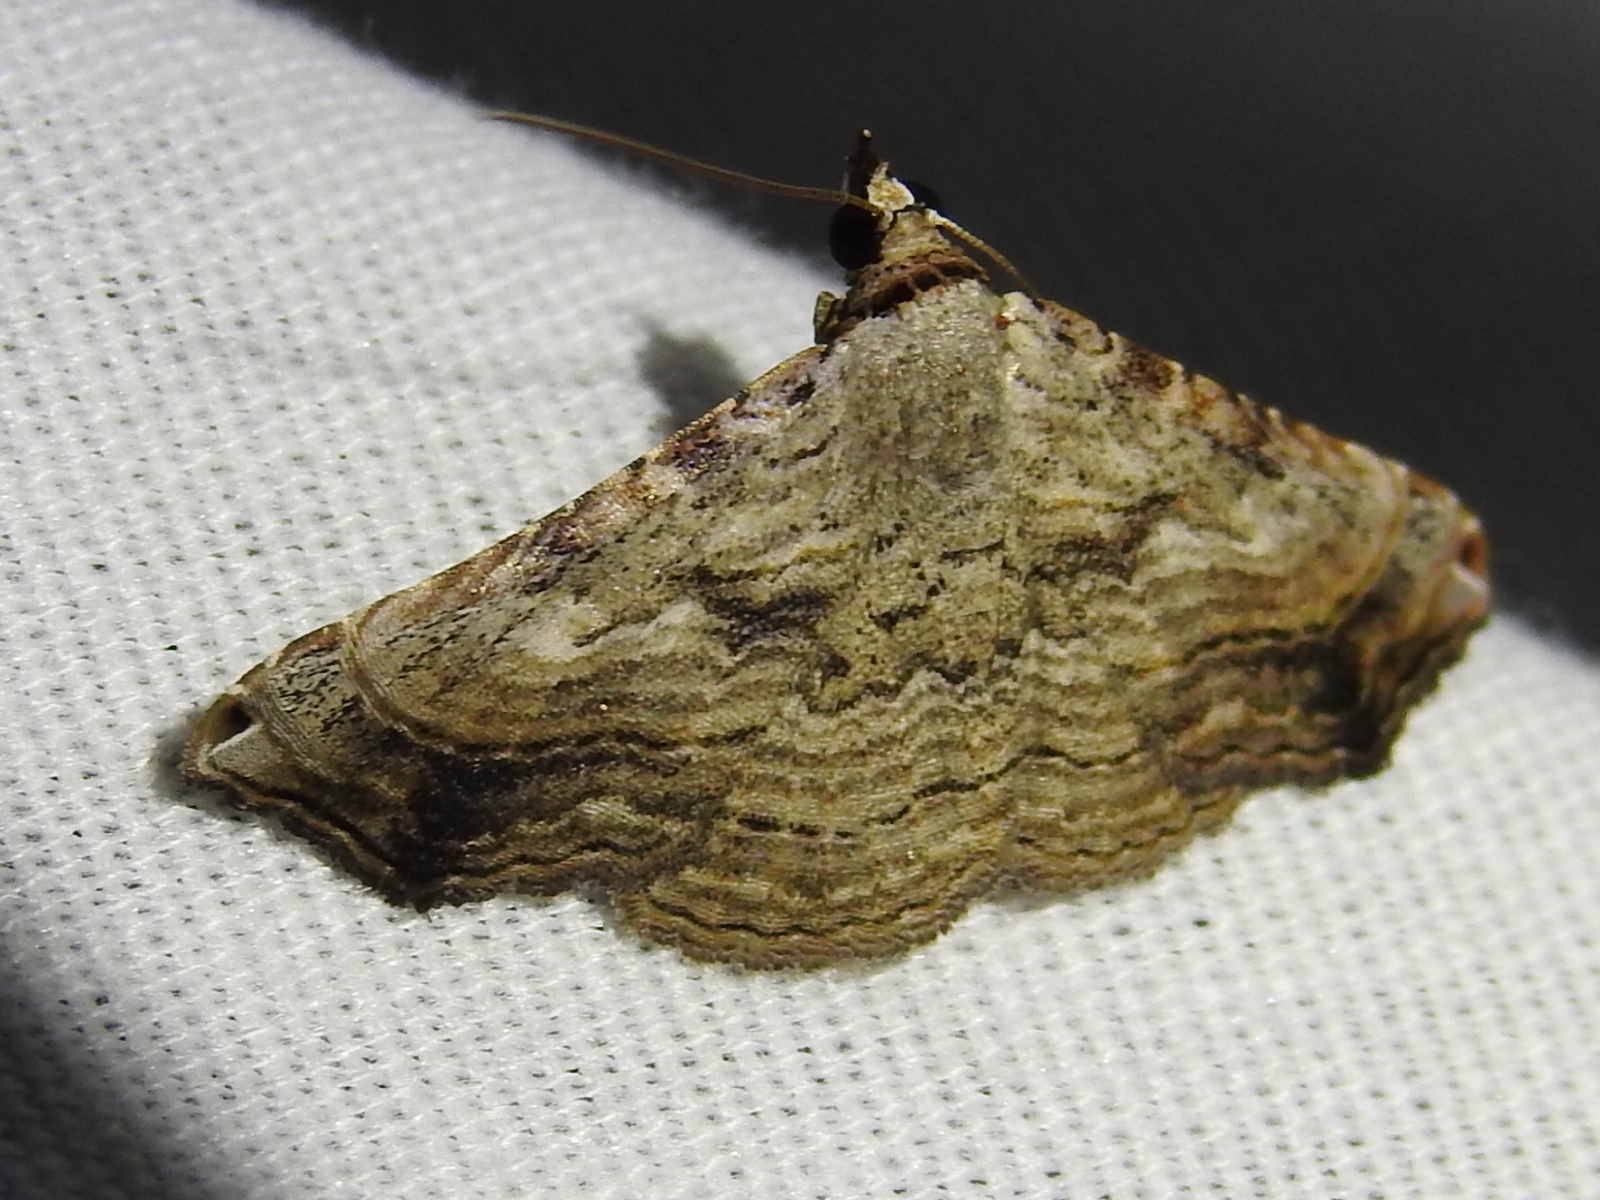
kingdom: Animalia
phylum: Arthropoda
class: Insecta
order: Lepidoptera
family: Erebidae
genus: Tyrissa
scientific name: Tyrissa multilinea
